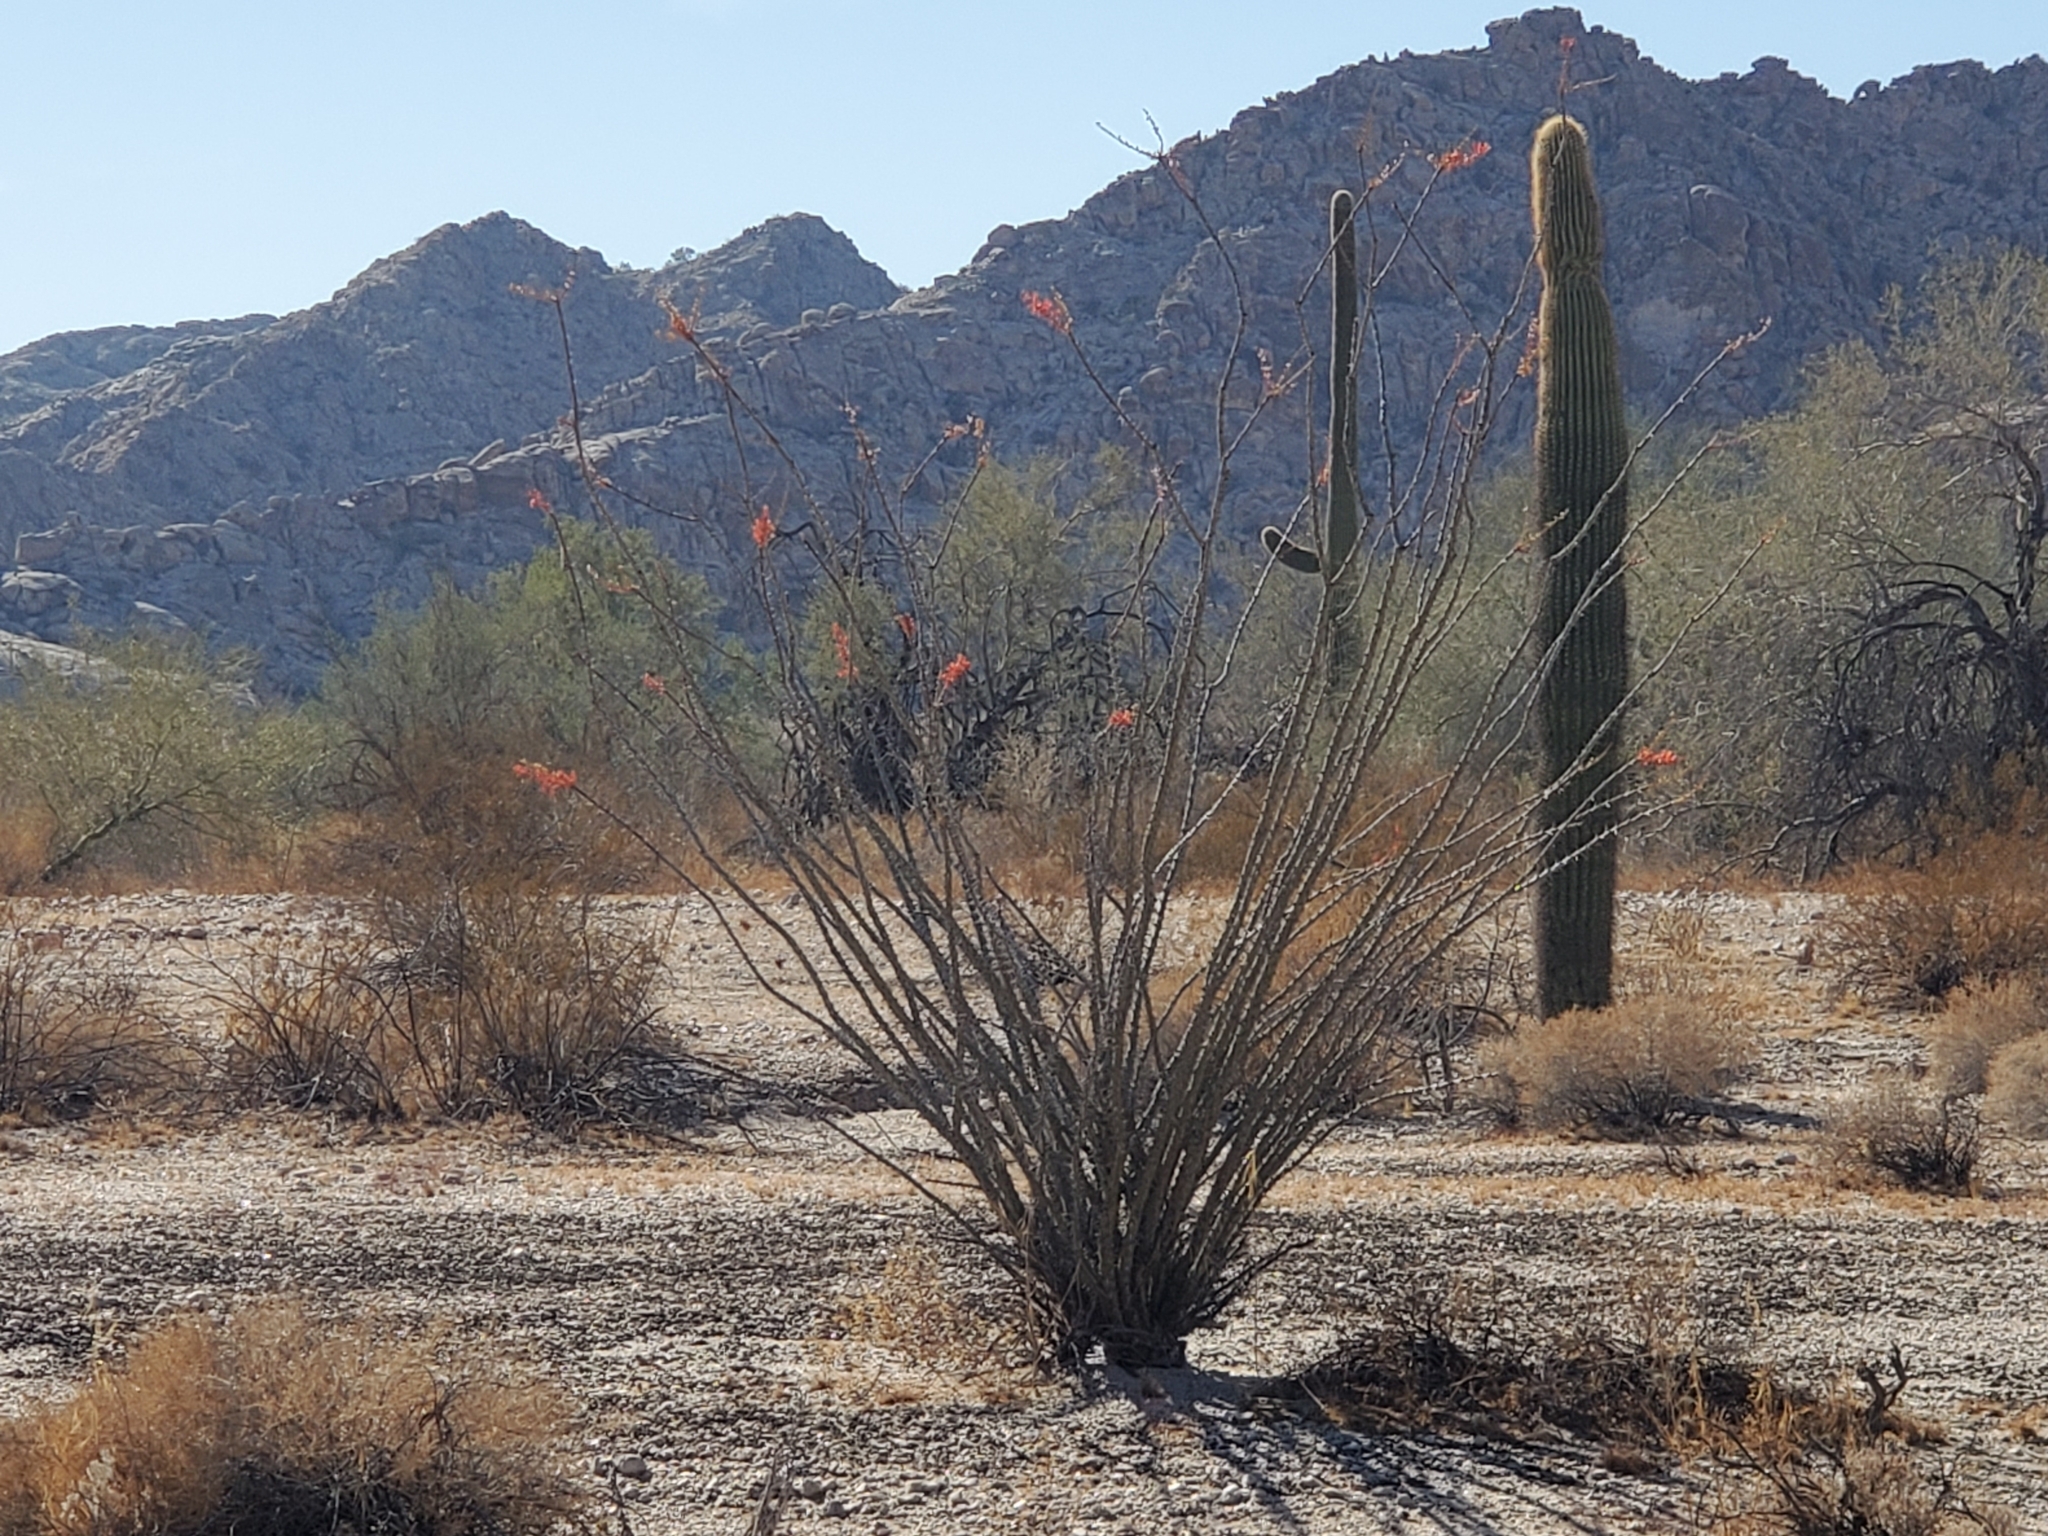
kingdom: Plantae
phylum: Tracheophyta
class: Magnoliopsida
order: Ericales
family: Fouquieriaceae
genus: Fouquieria
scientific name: Fouquieria splendens
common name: Vine-cactus
